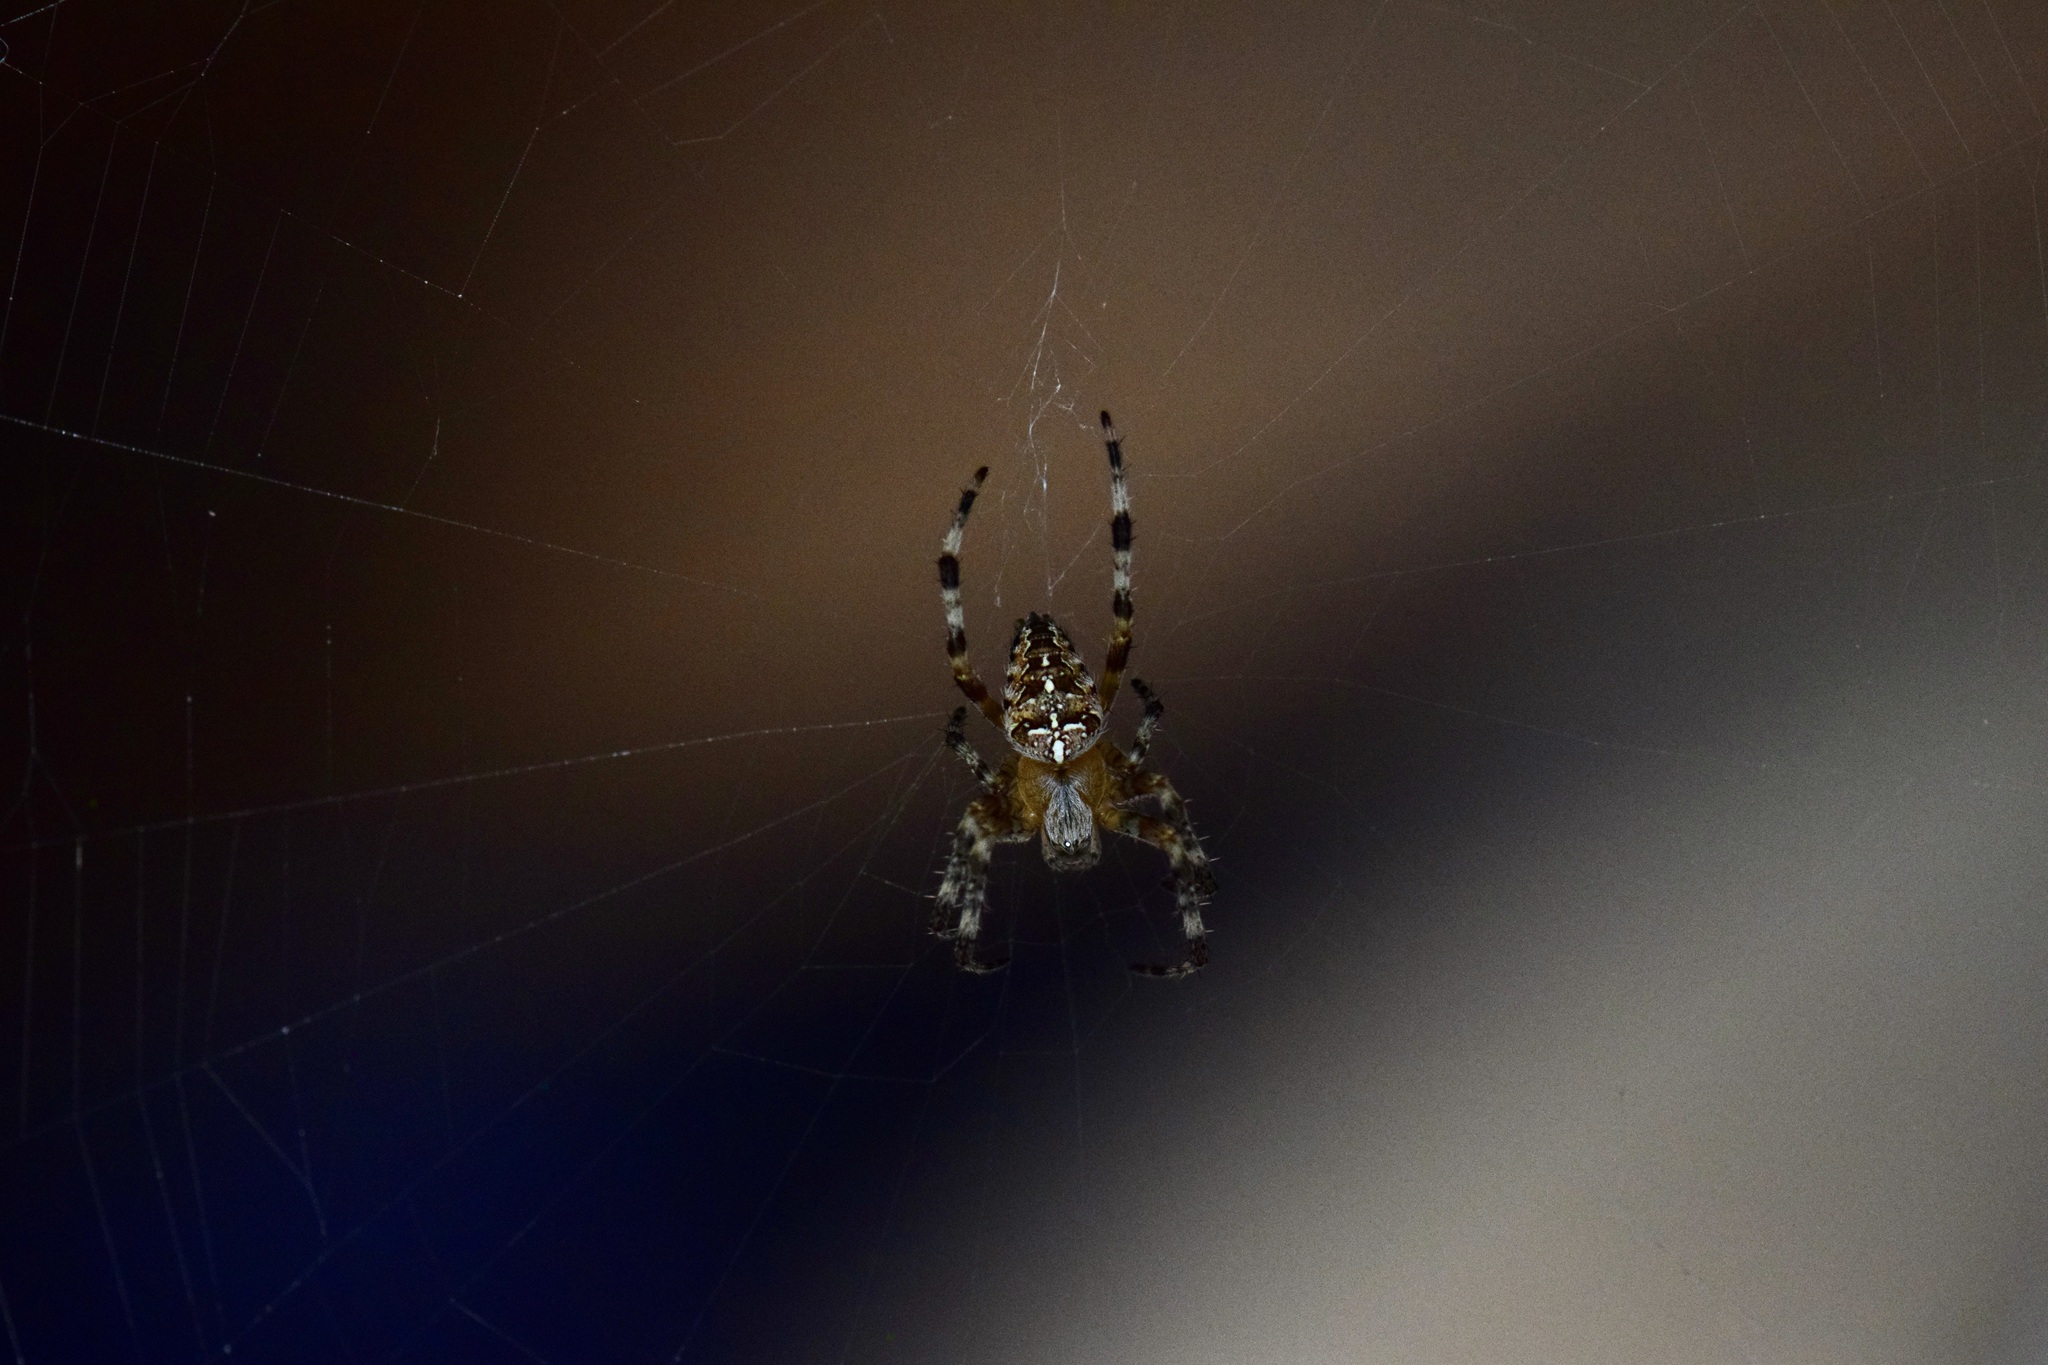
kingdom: Animalia
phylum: Arthropoda
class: Arachnida
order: Araneae
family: Araneidae
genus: Araneus
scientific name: Araneus diadematus
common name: Cross orbweaver
